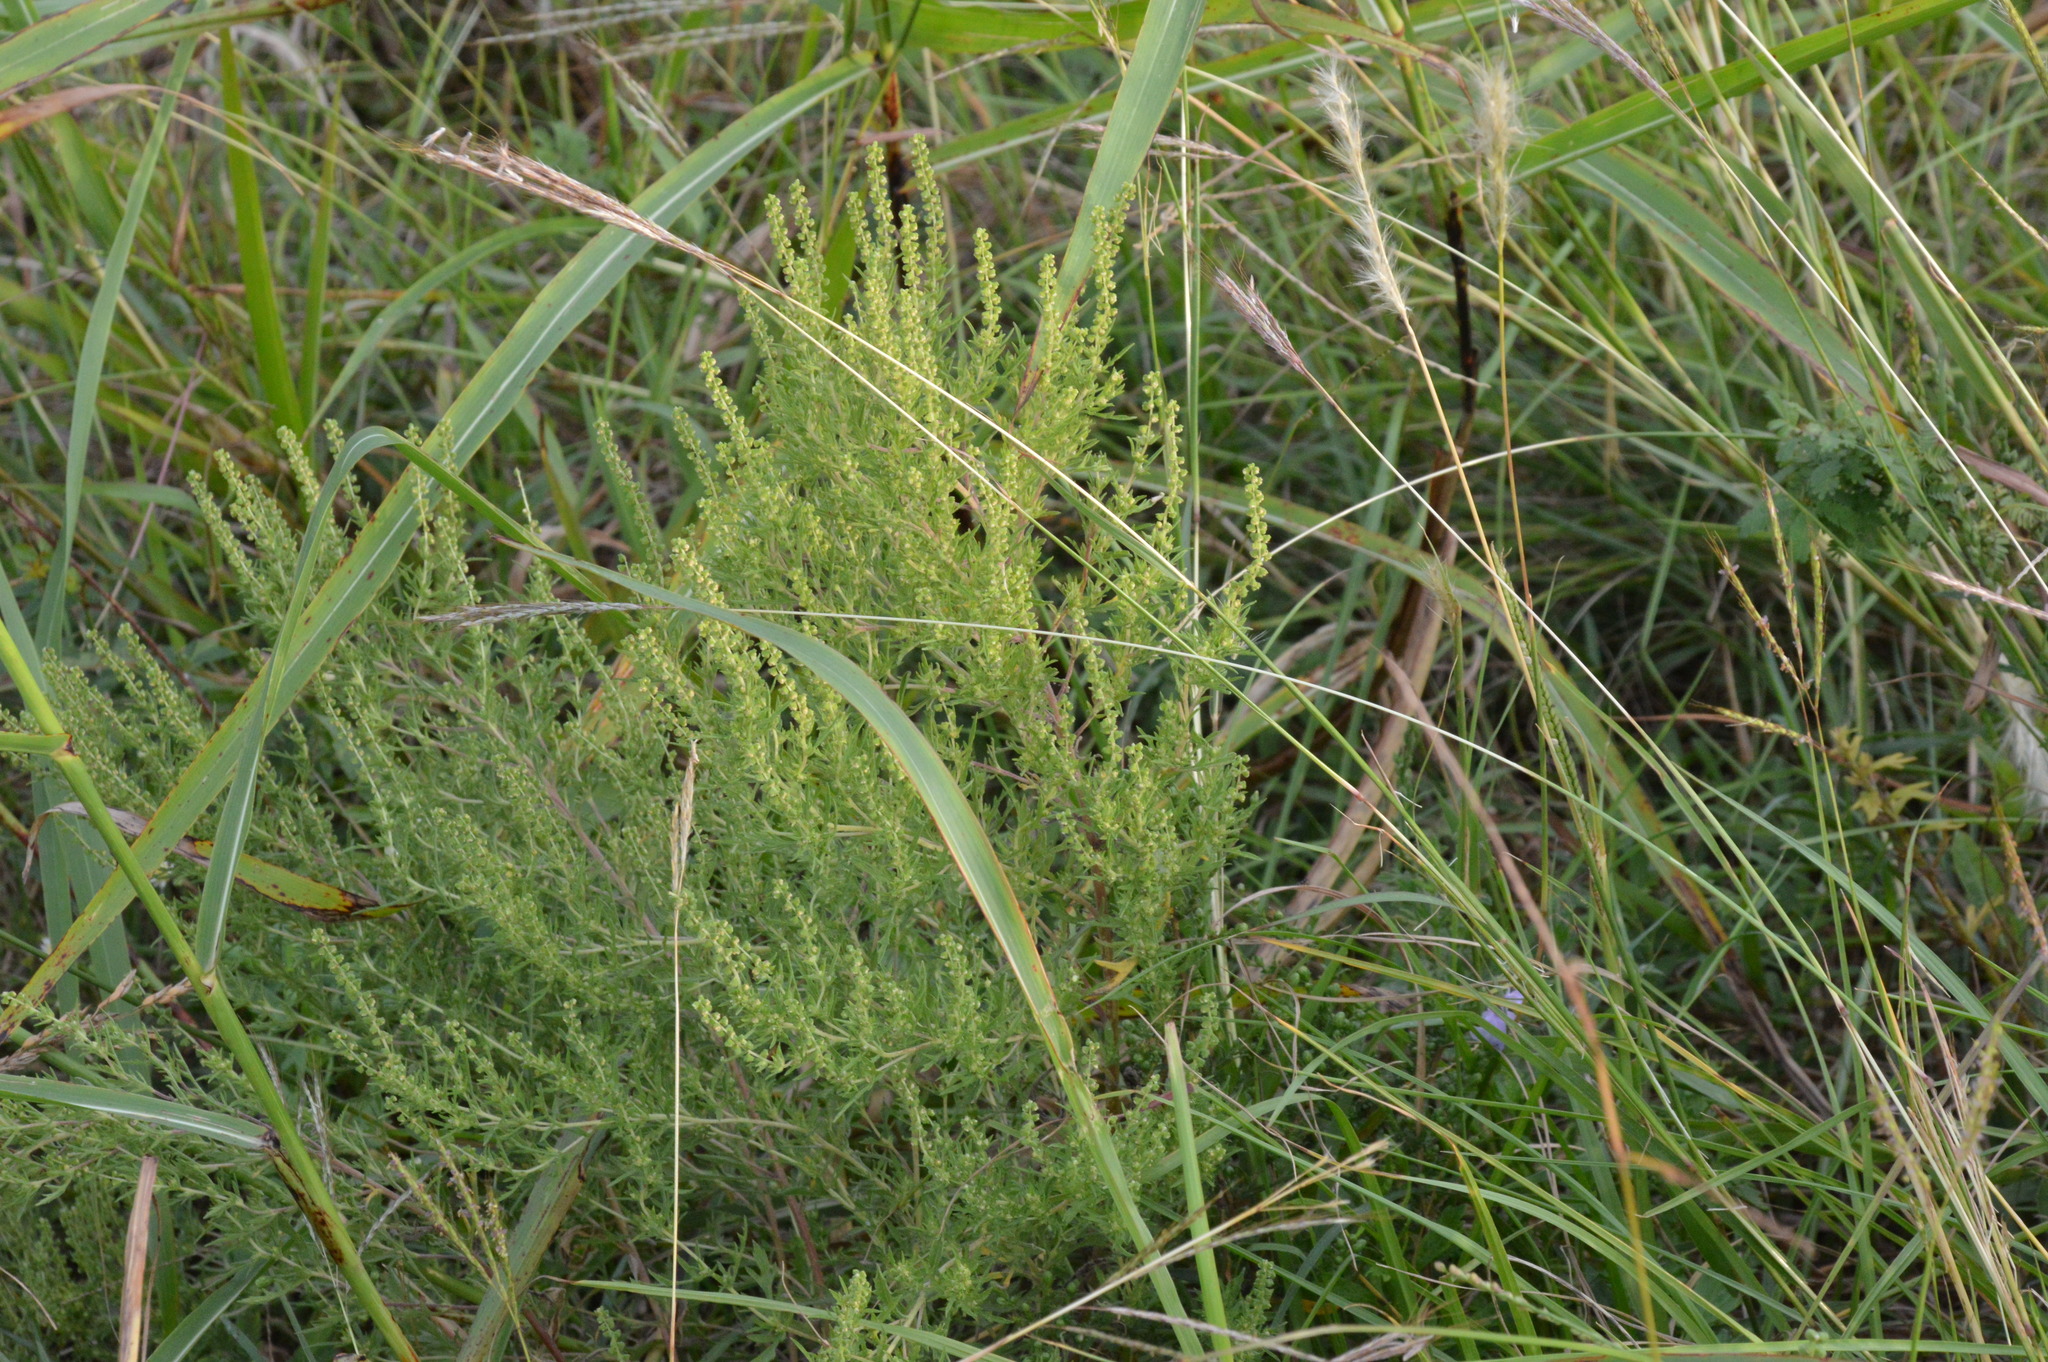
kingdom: Plantae
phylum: Tracheophyta
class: Magnoliopsida
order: Asterales
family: Asteraceae
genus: Ambrosia
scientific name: Ambrosia psilostachya
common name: Perennial ragweed
